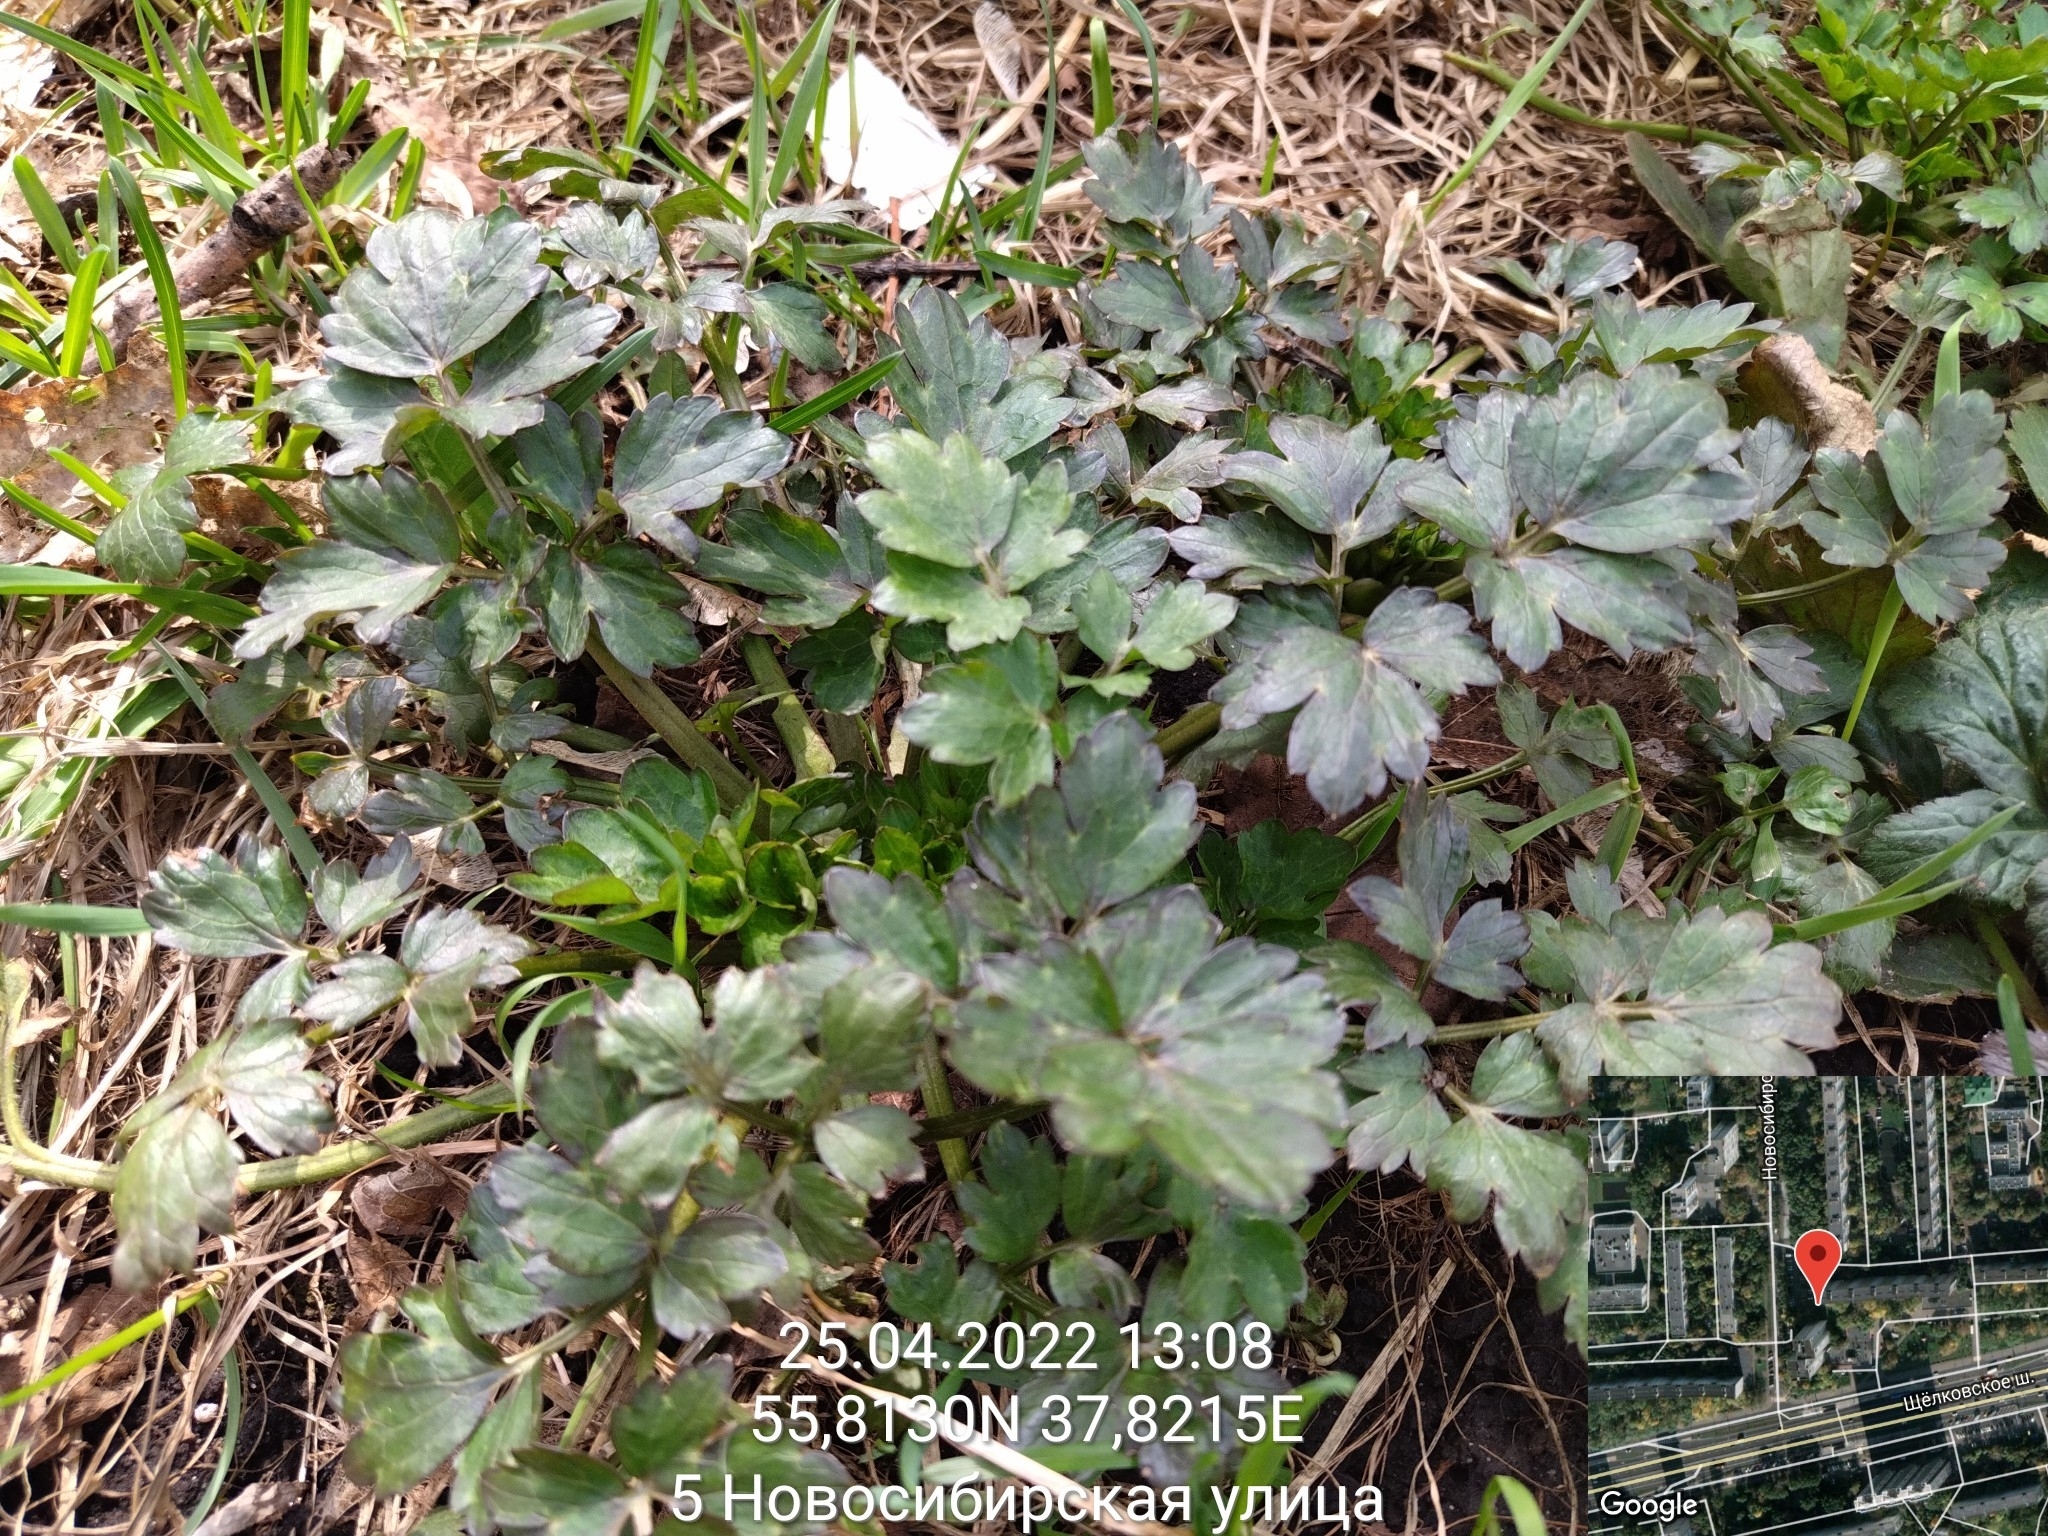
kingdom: Plantae
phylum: Tracheophyta
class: Magnoliopsida
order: Ranunculales
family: Ranunculaceae
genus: Ranunculus
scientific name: Ranunculus repens
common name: Creeping buttercup
